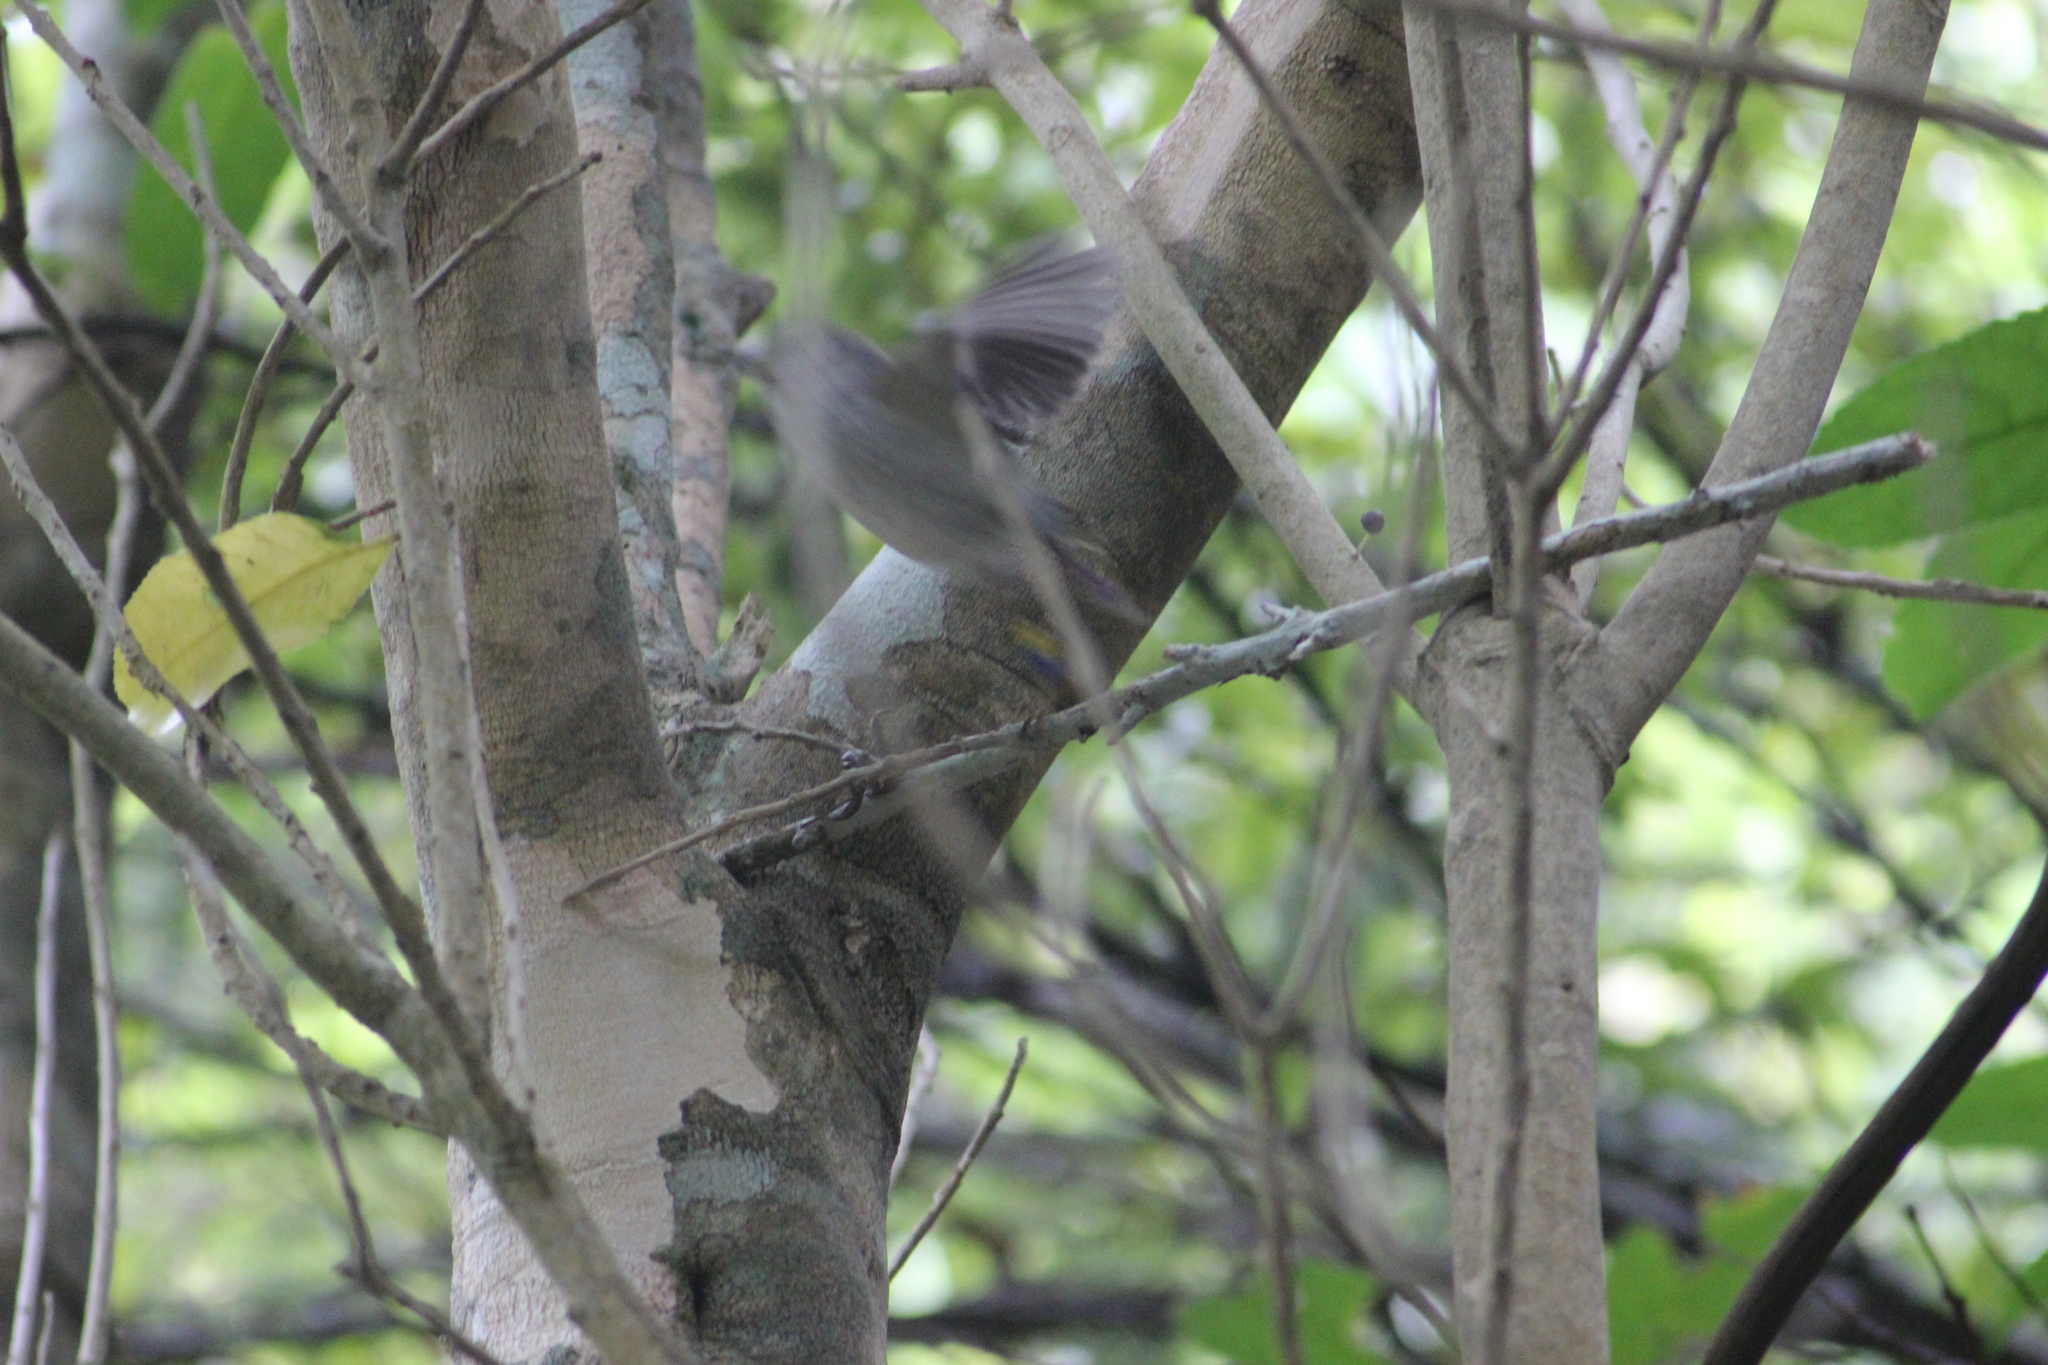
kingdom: Animalia
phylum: Chordata
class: Aves
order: Passeriformes
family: Acanthisittidae
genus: Acanthisitta
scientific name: Acanthisitta chloris
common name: Rifleman
